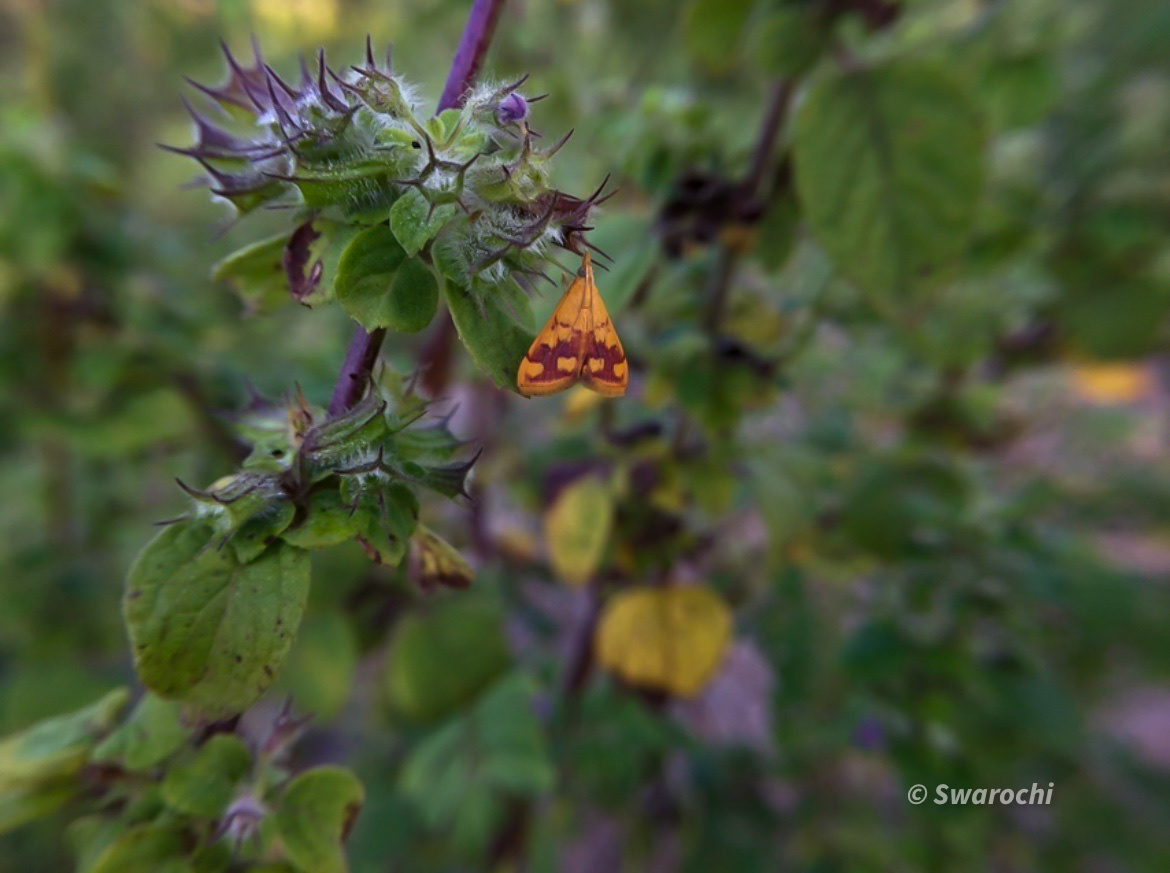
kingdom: Animalia
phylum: Arthropoda
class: Insecta
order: Lepidoptera
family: Crambidae
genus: Pyrausta
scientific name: Pyrausta phoenicealis
